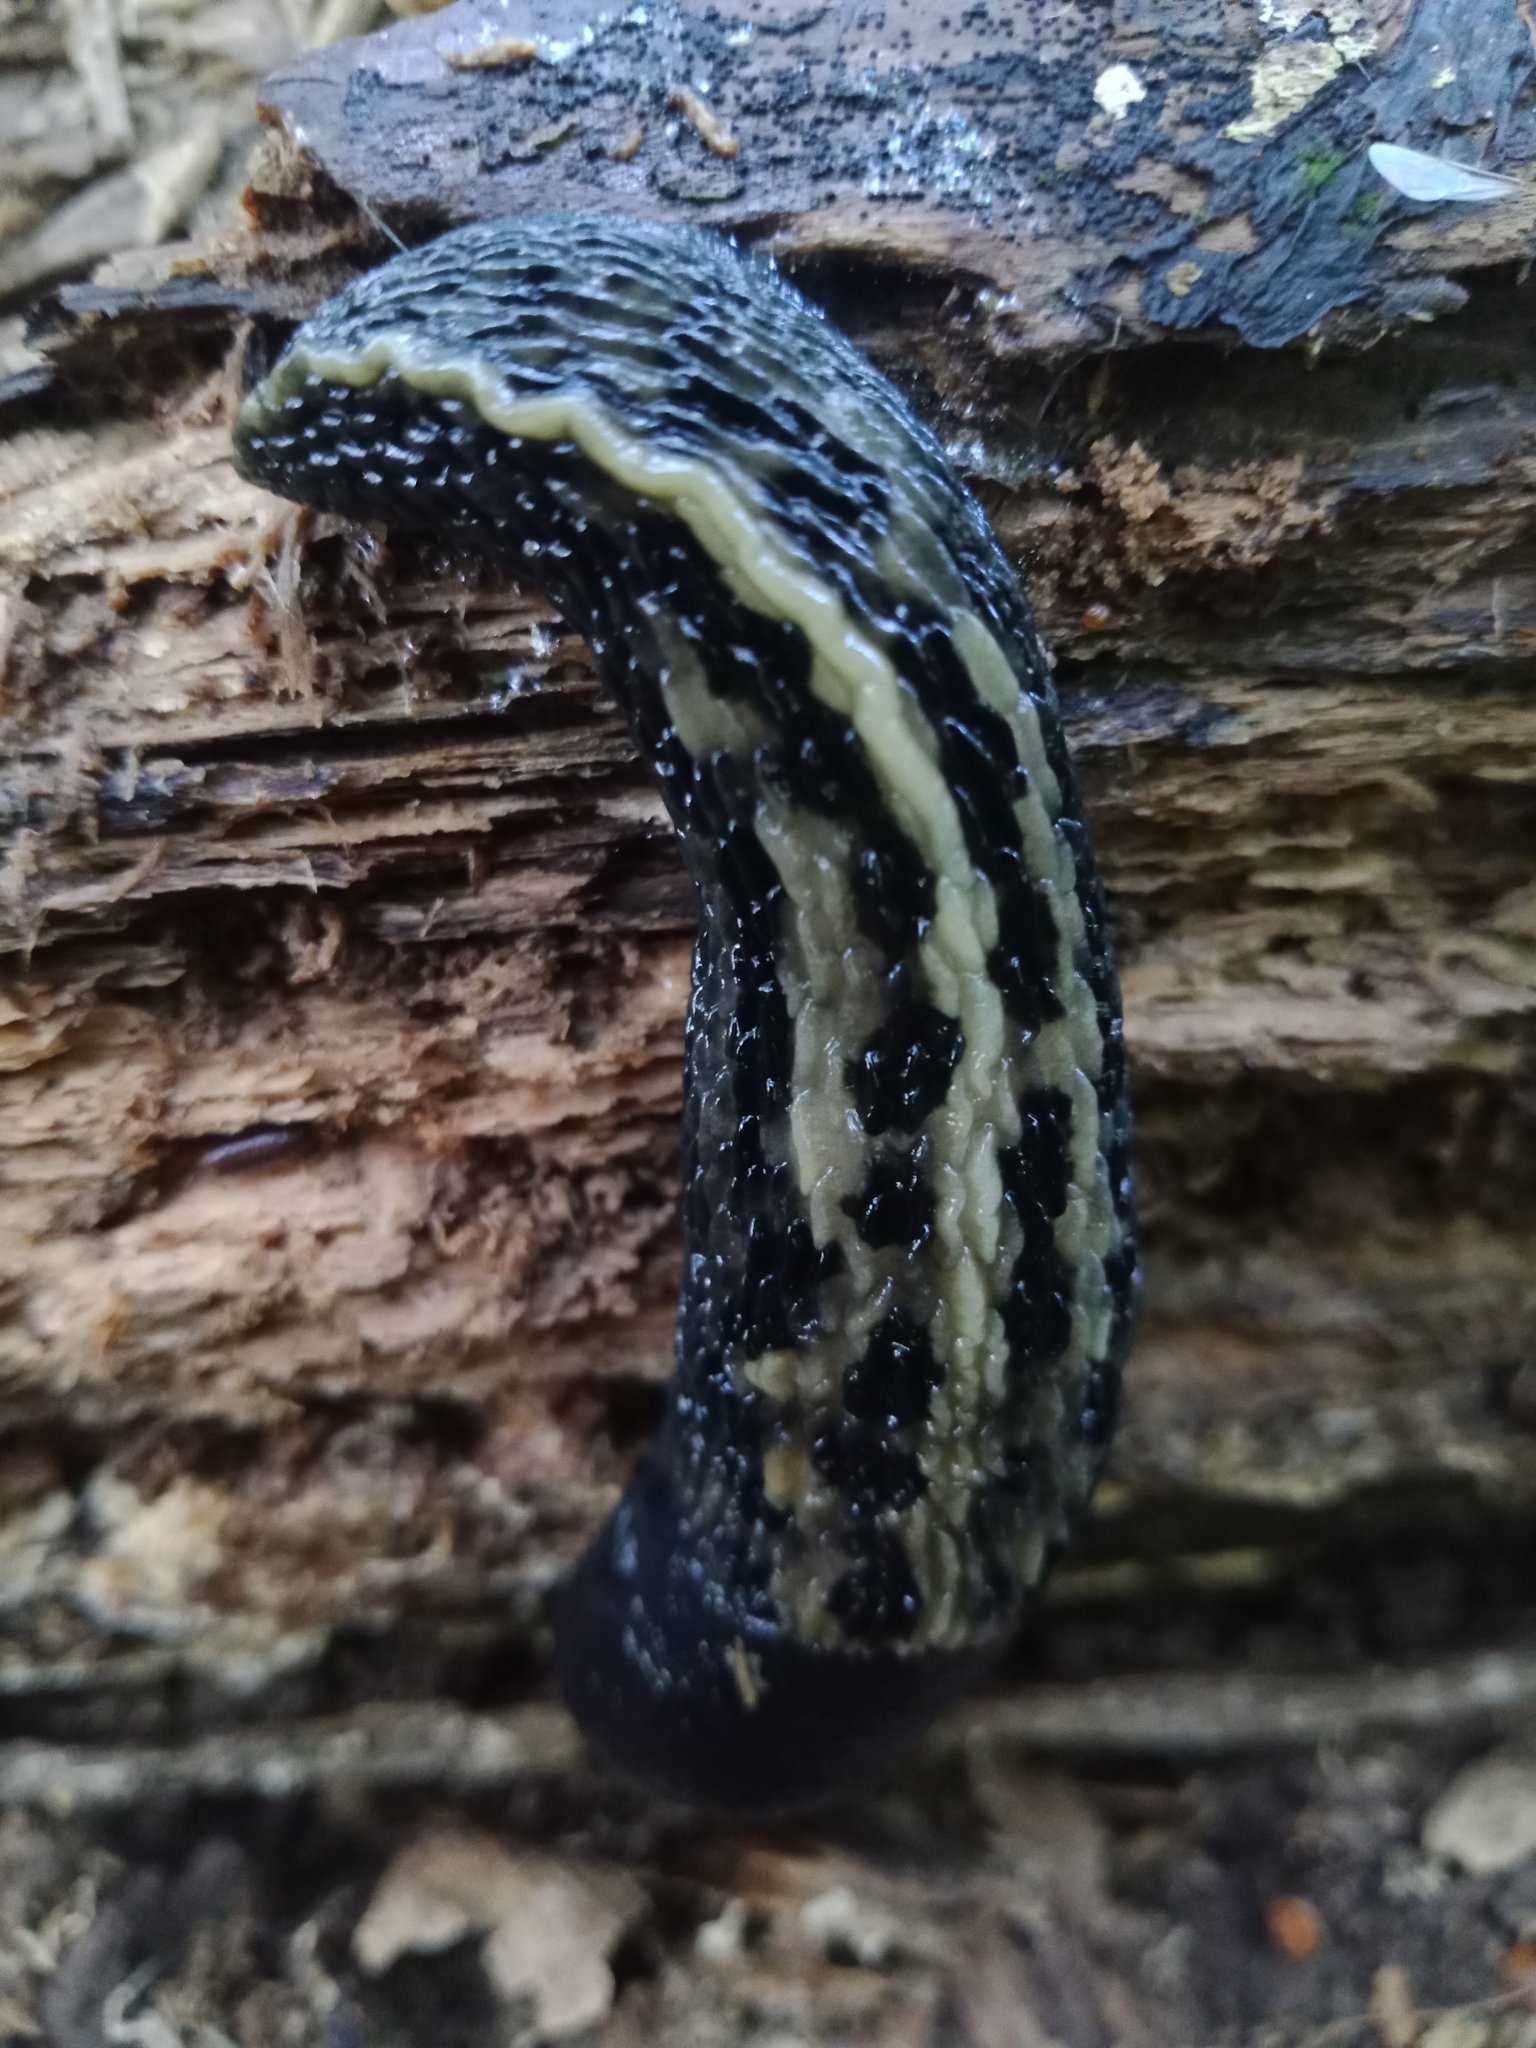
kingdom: Animalia
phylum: Mollusca
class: Gastropoda
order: Stylommatophora
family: Limacidae
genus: Limax
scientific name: Limax cinereoniger
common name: Ash-black slug
